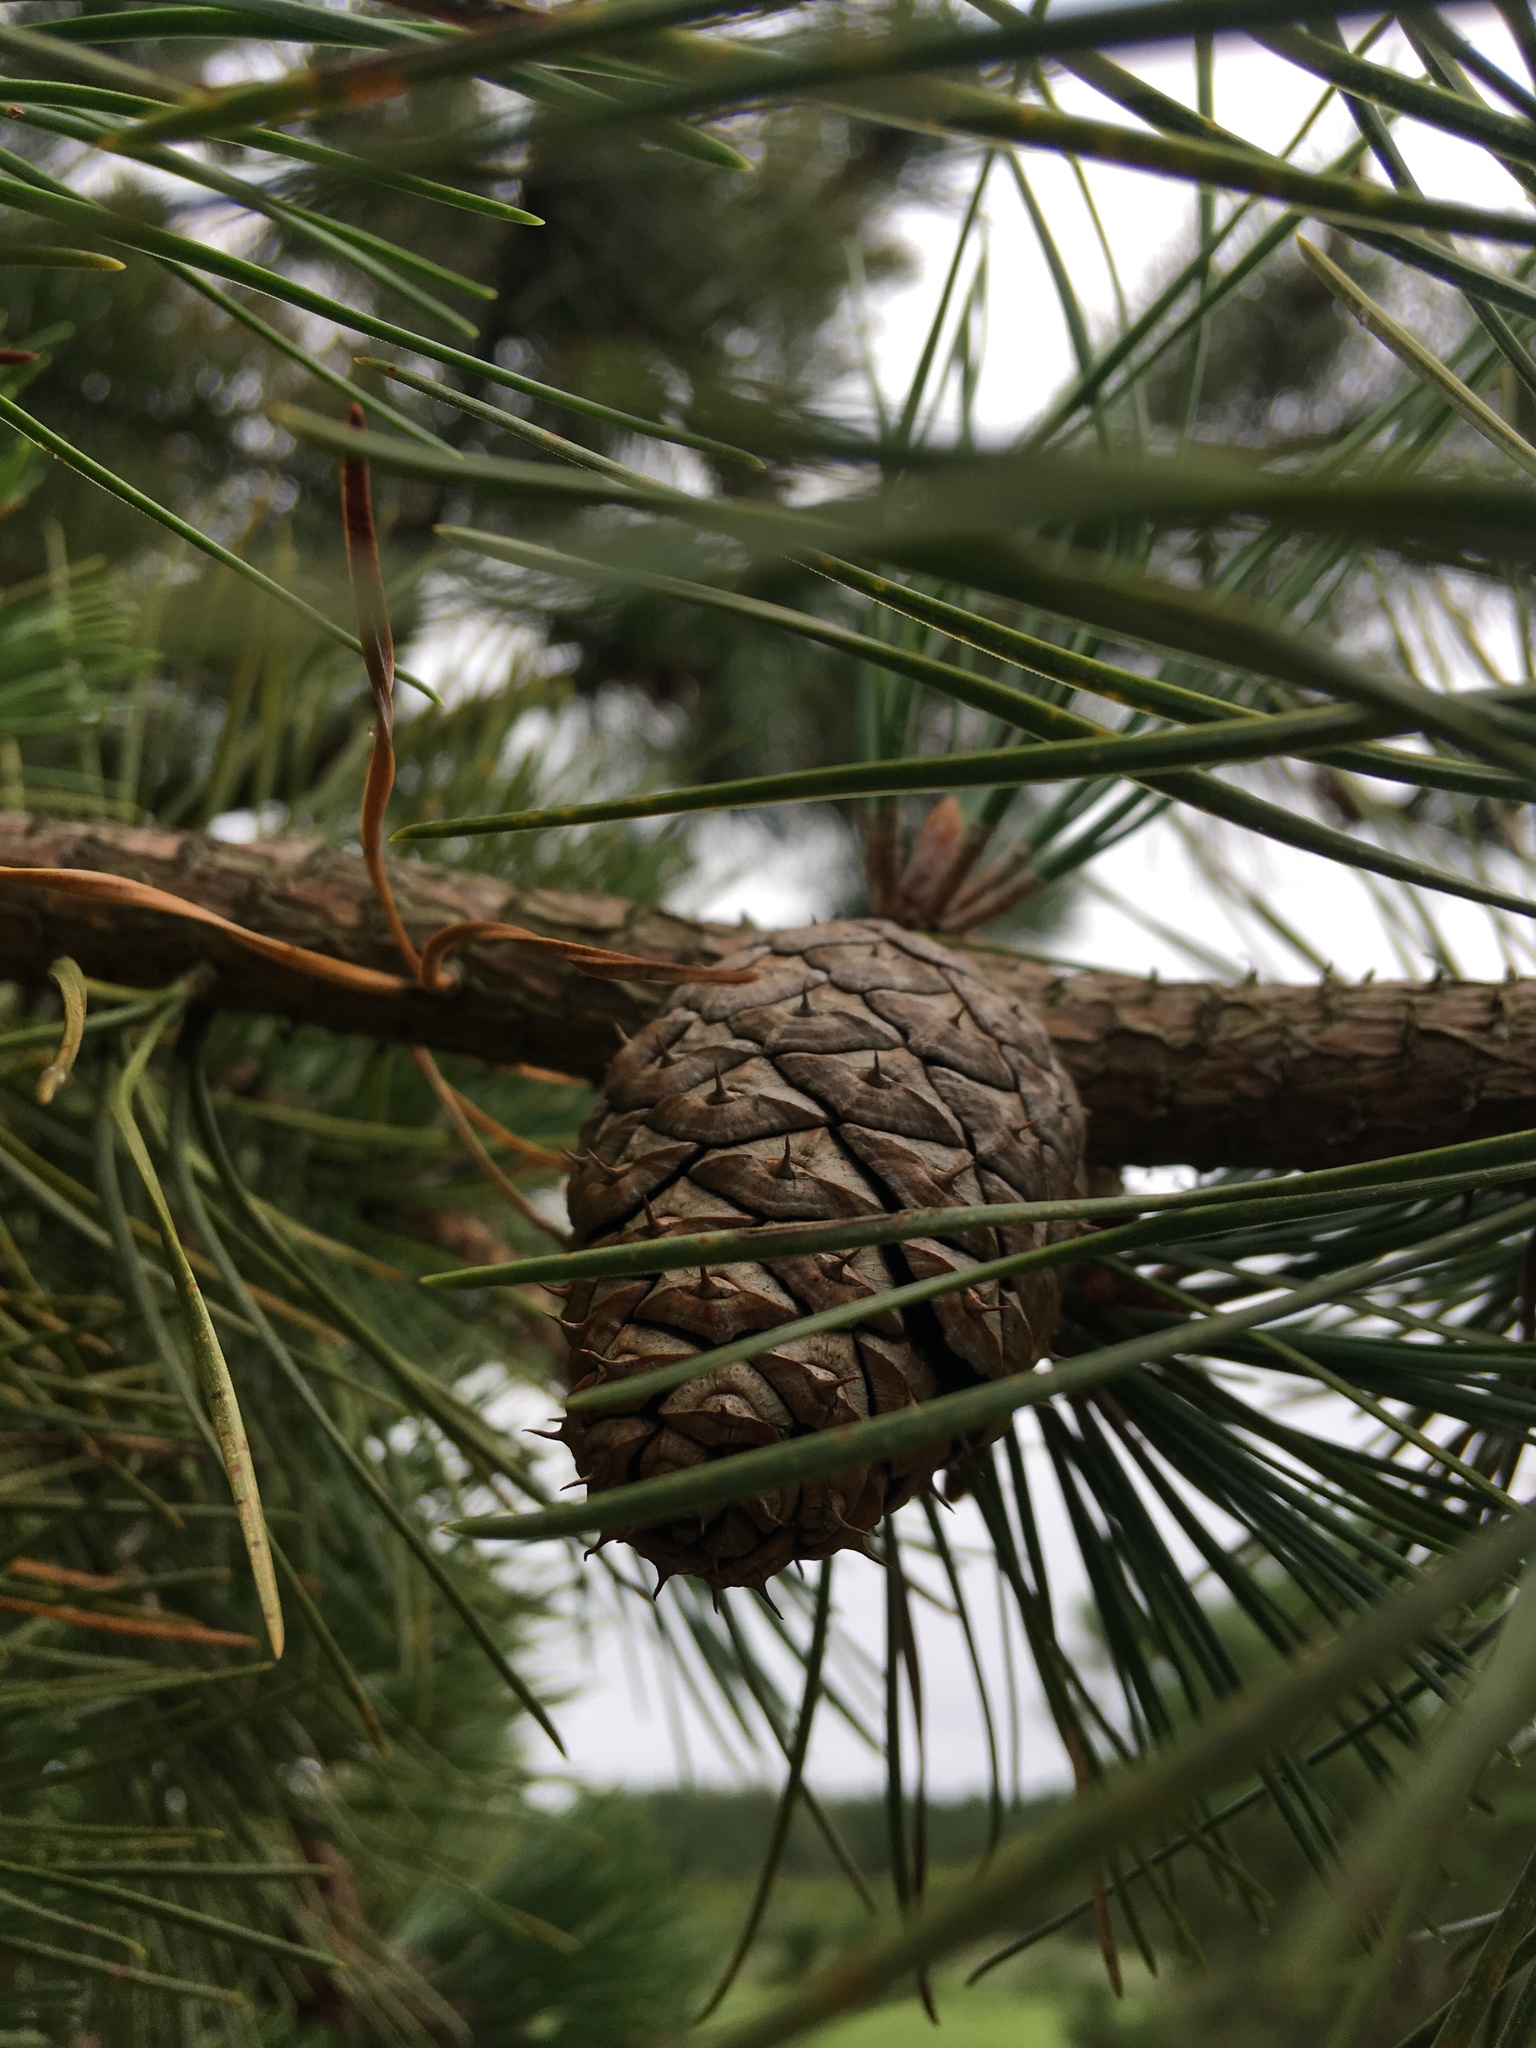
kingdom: Plantae
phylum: Tracheophyta
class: Pinopsida
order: Pinales
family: Pinaceae
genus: Pinus
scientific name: Pinus rigida
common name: Pitch pine
